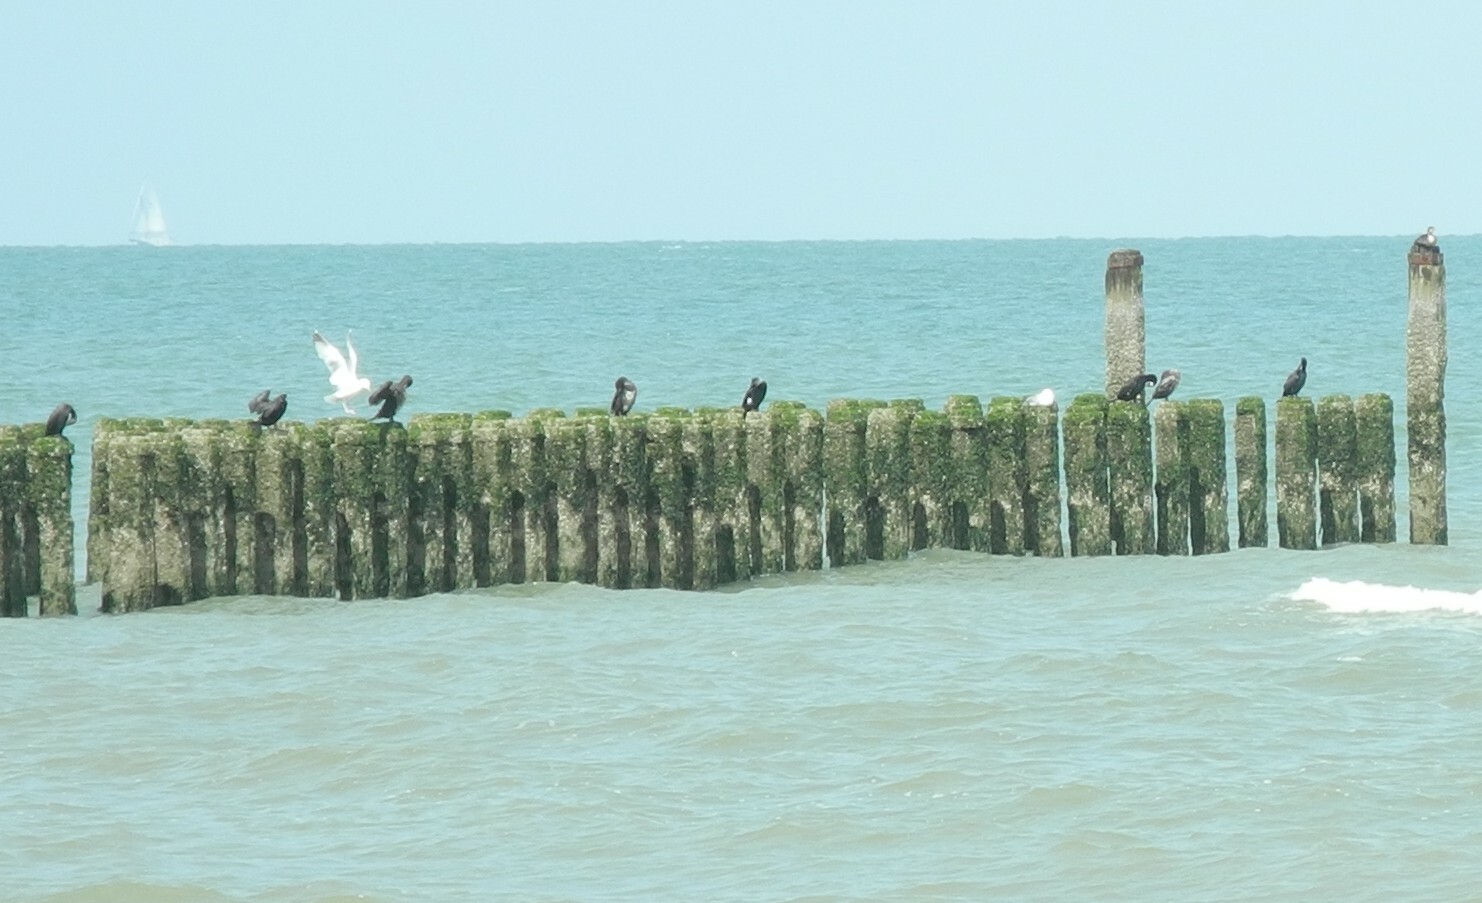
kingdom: Animalia
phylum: Chordata
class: Aves
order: Suliformes
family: Phalacrocoracidae
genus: Phalacrocorax
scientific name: Phalacrocorax carbo
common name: Great cormorant
